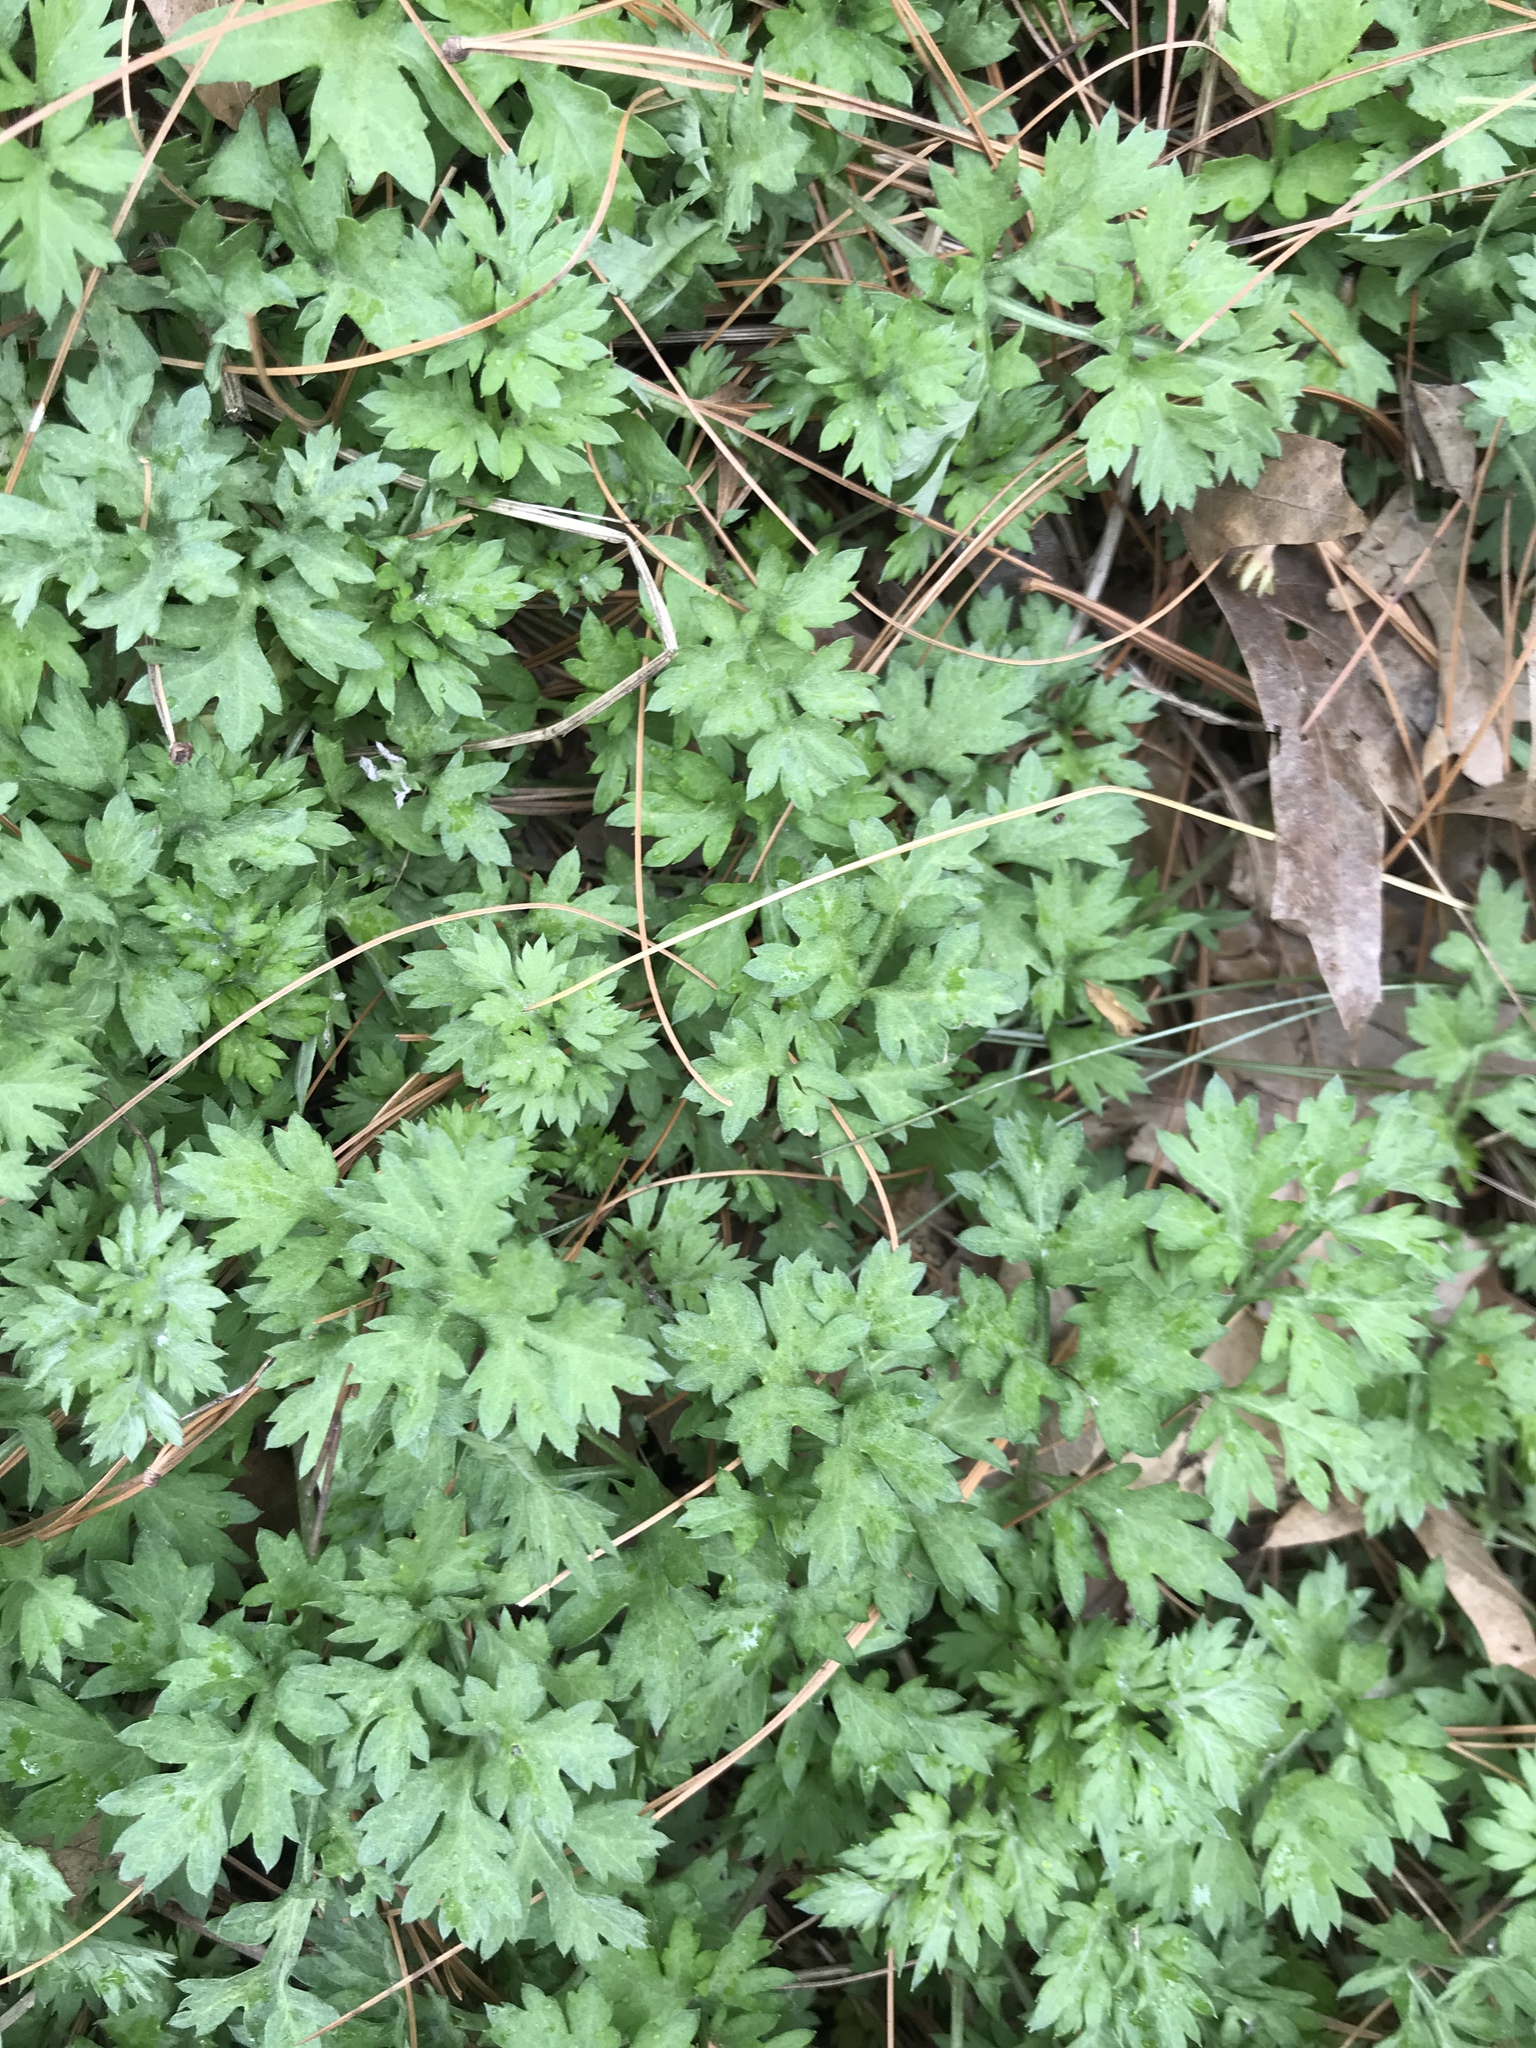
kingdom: Plantae
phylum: Tracheophyta
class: Magnoliopsida
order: Asterales
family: Asteraceae
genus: Artemisia
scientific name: Artemisia vulgaris
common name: Mugwort
